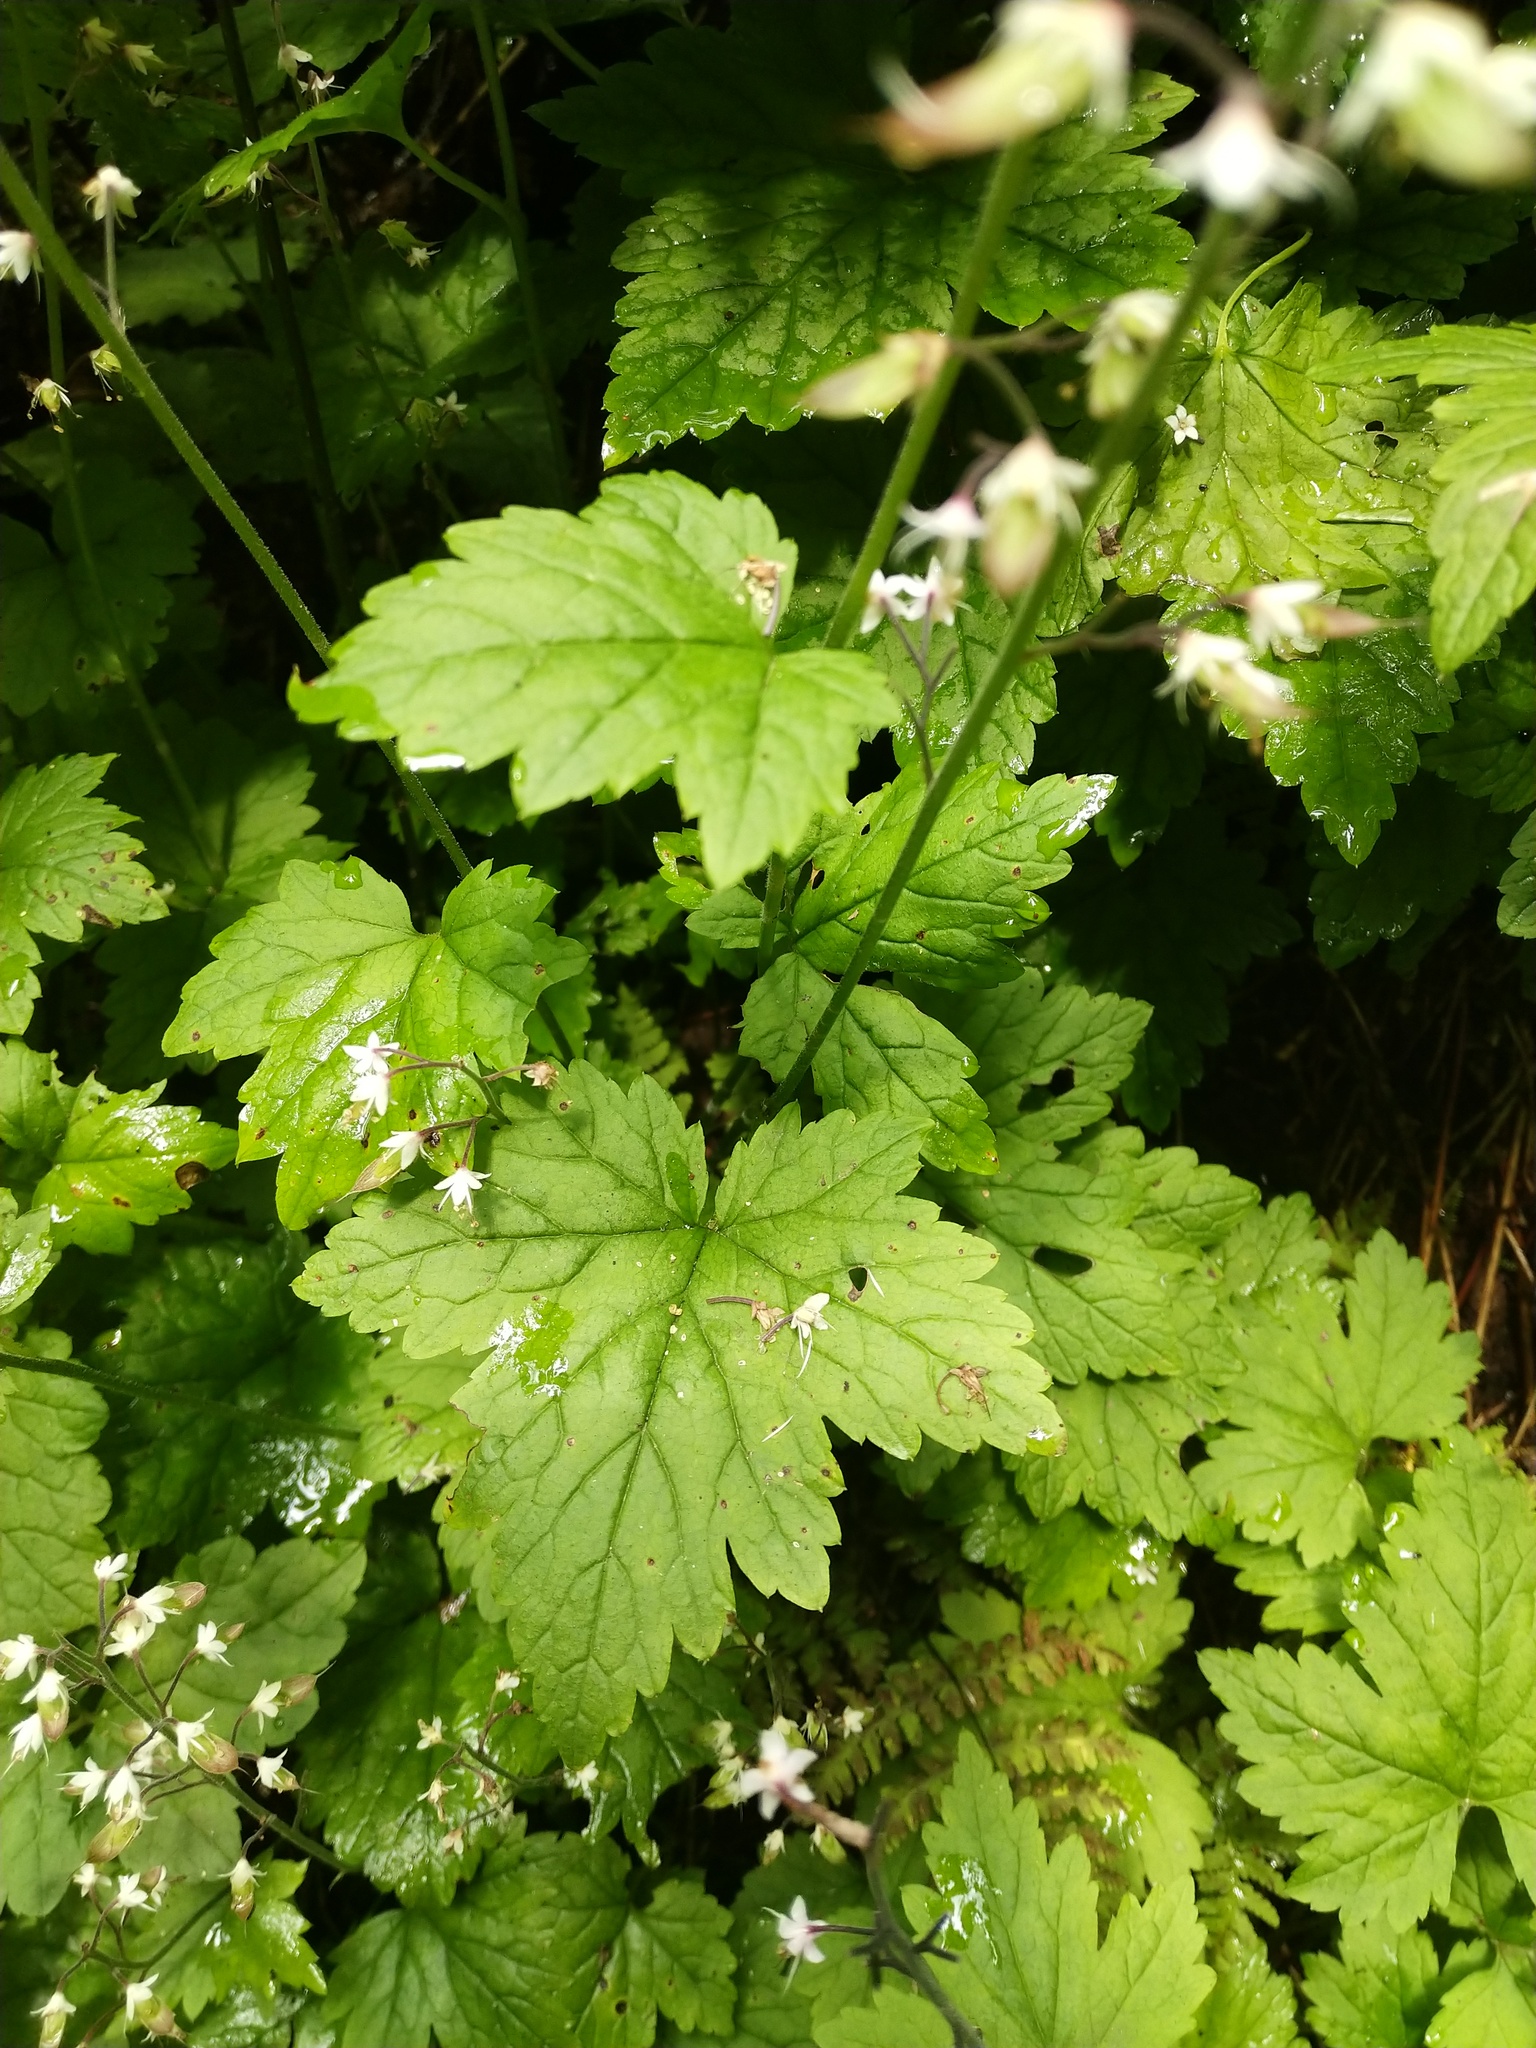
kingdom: Plantae
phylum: Tracheophyta
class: Magnoliopsida
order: Saxifragales
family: Saxifragaceae
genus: Tiarella
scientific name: Tiarella trifoliata
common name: Sugar-scoop
